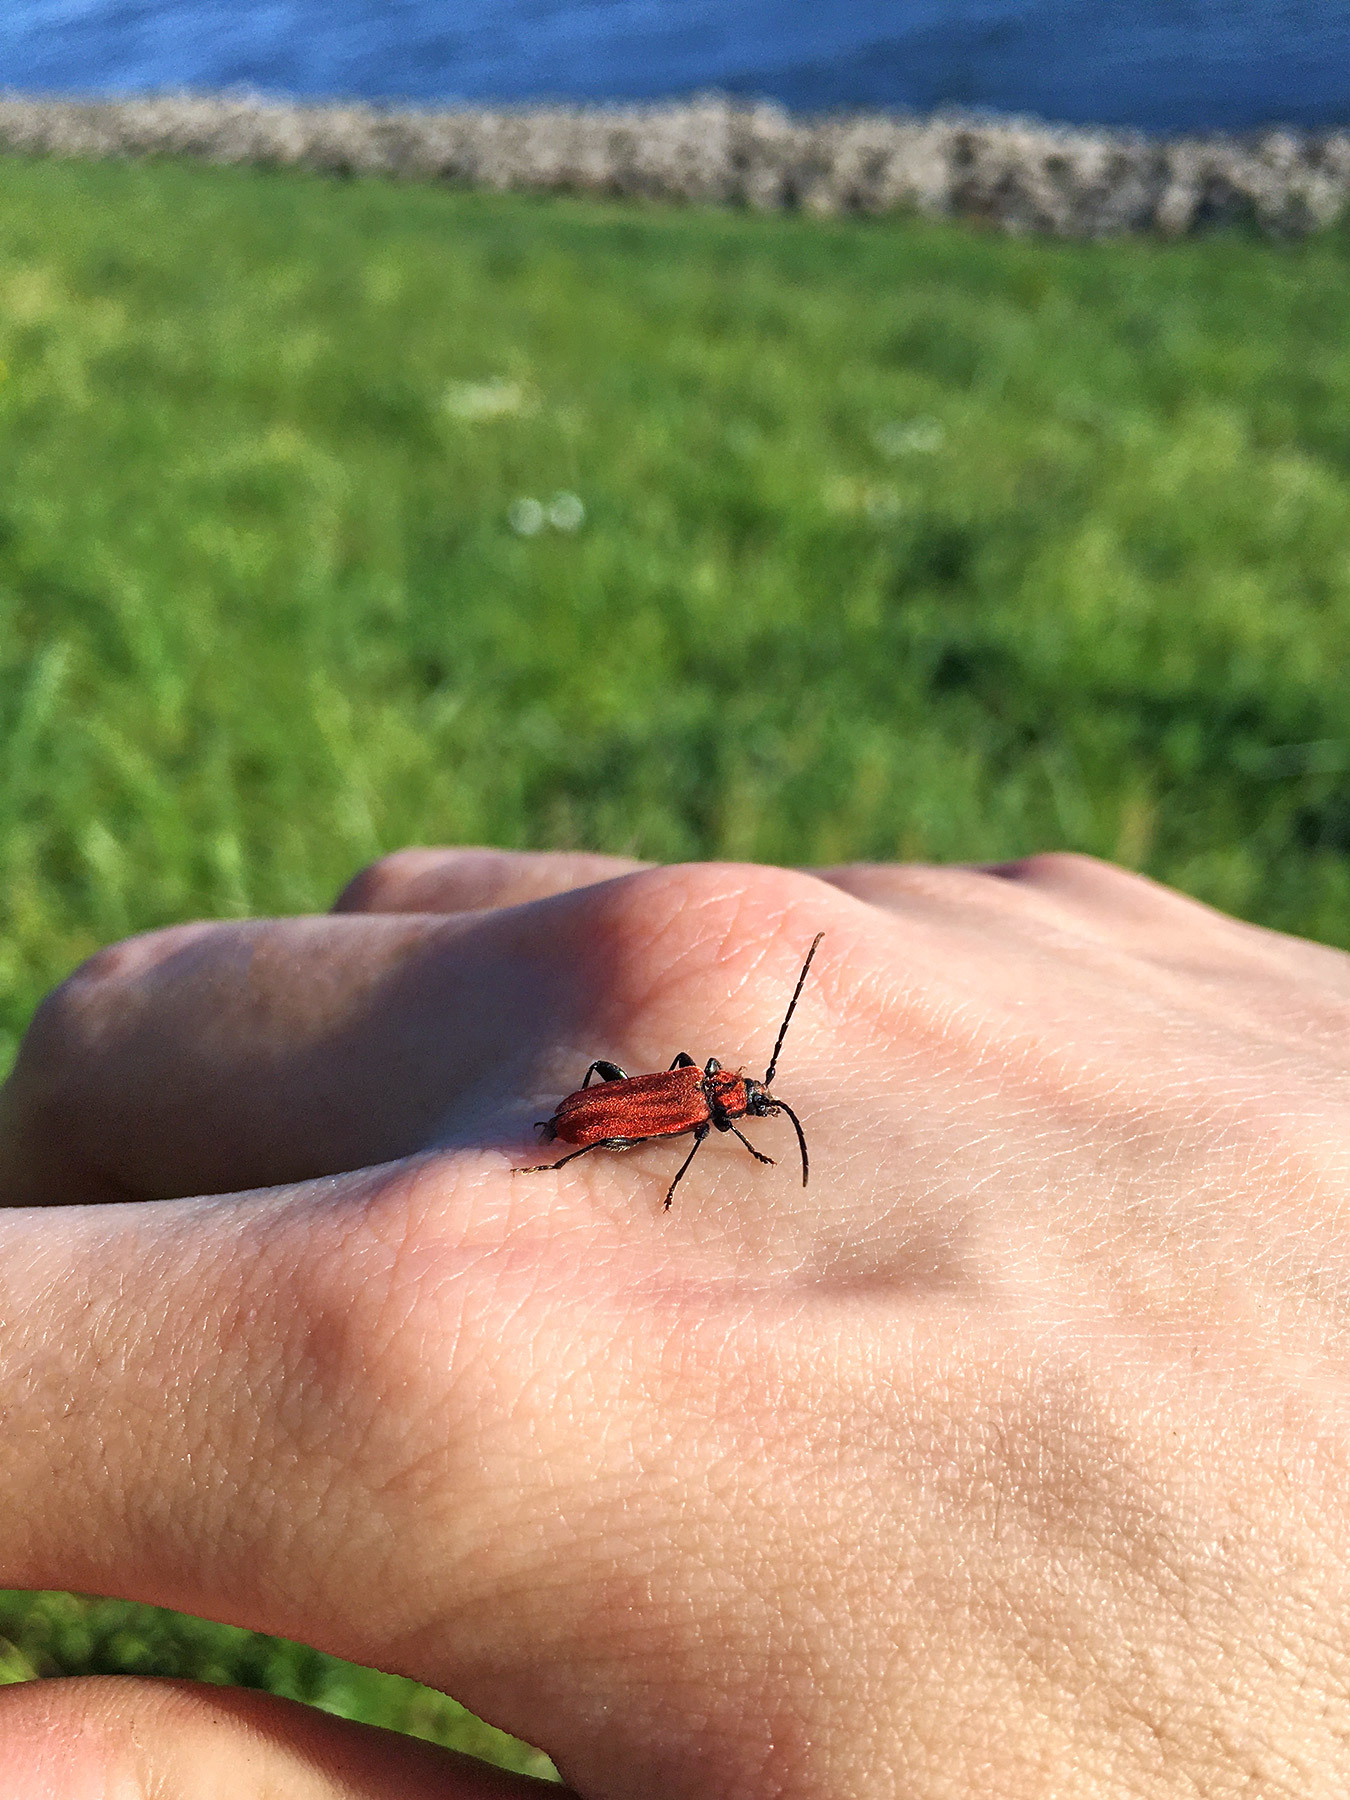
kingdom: Animalia
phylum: Arthropoda
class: Insecta
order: Coleoptera
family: Cerambycidae
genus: Pyrrhidium
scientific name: Pyrrhidium sanguineum
